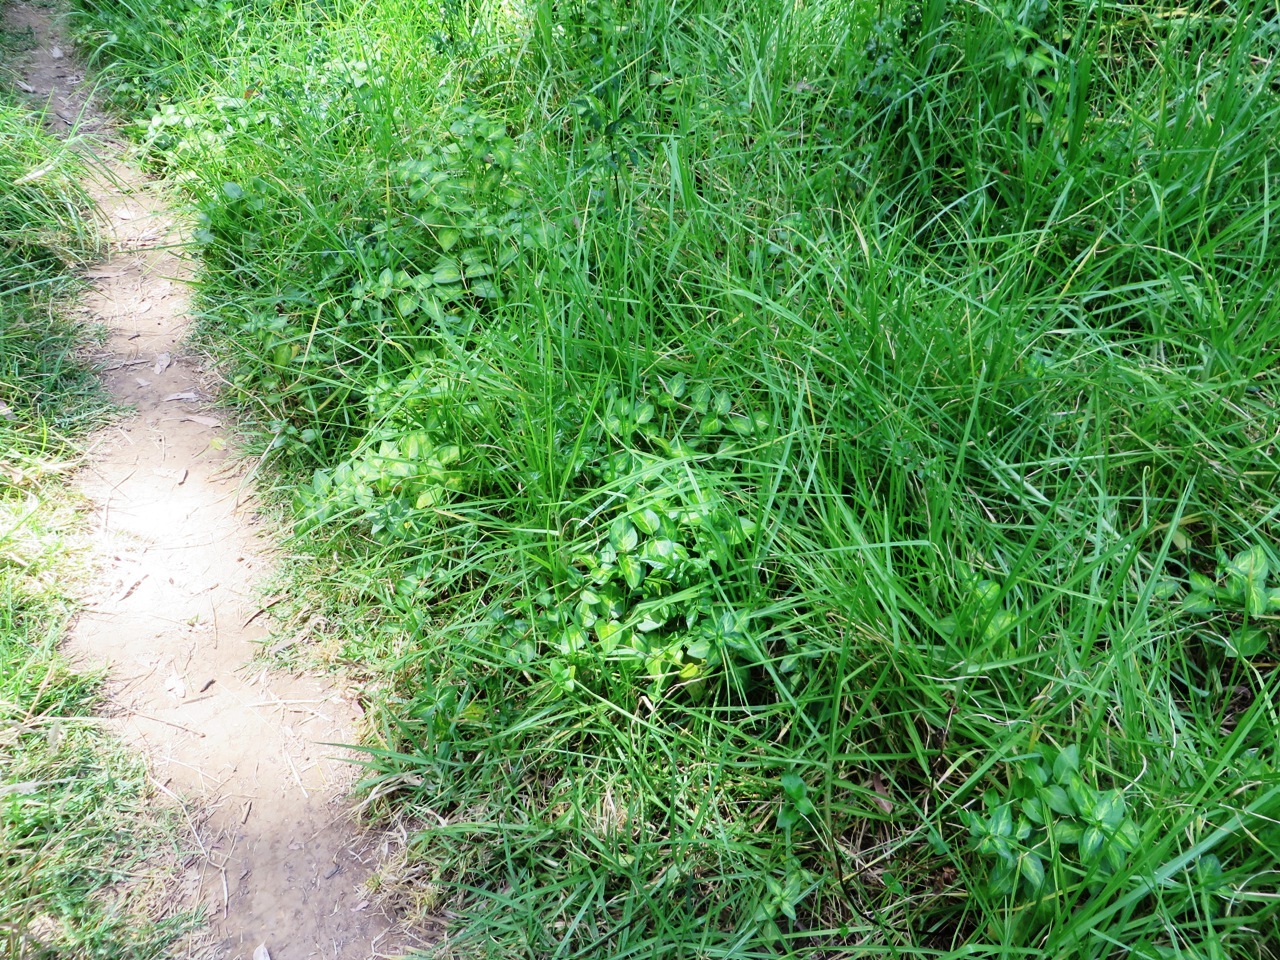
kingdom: Plantae
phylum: Tracheophyta
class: Liliopsida
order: Poales
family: Poaceae
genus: Cenchrus
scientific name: Cenchrus clandestinus
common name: Kikuyugrass
